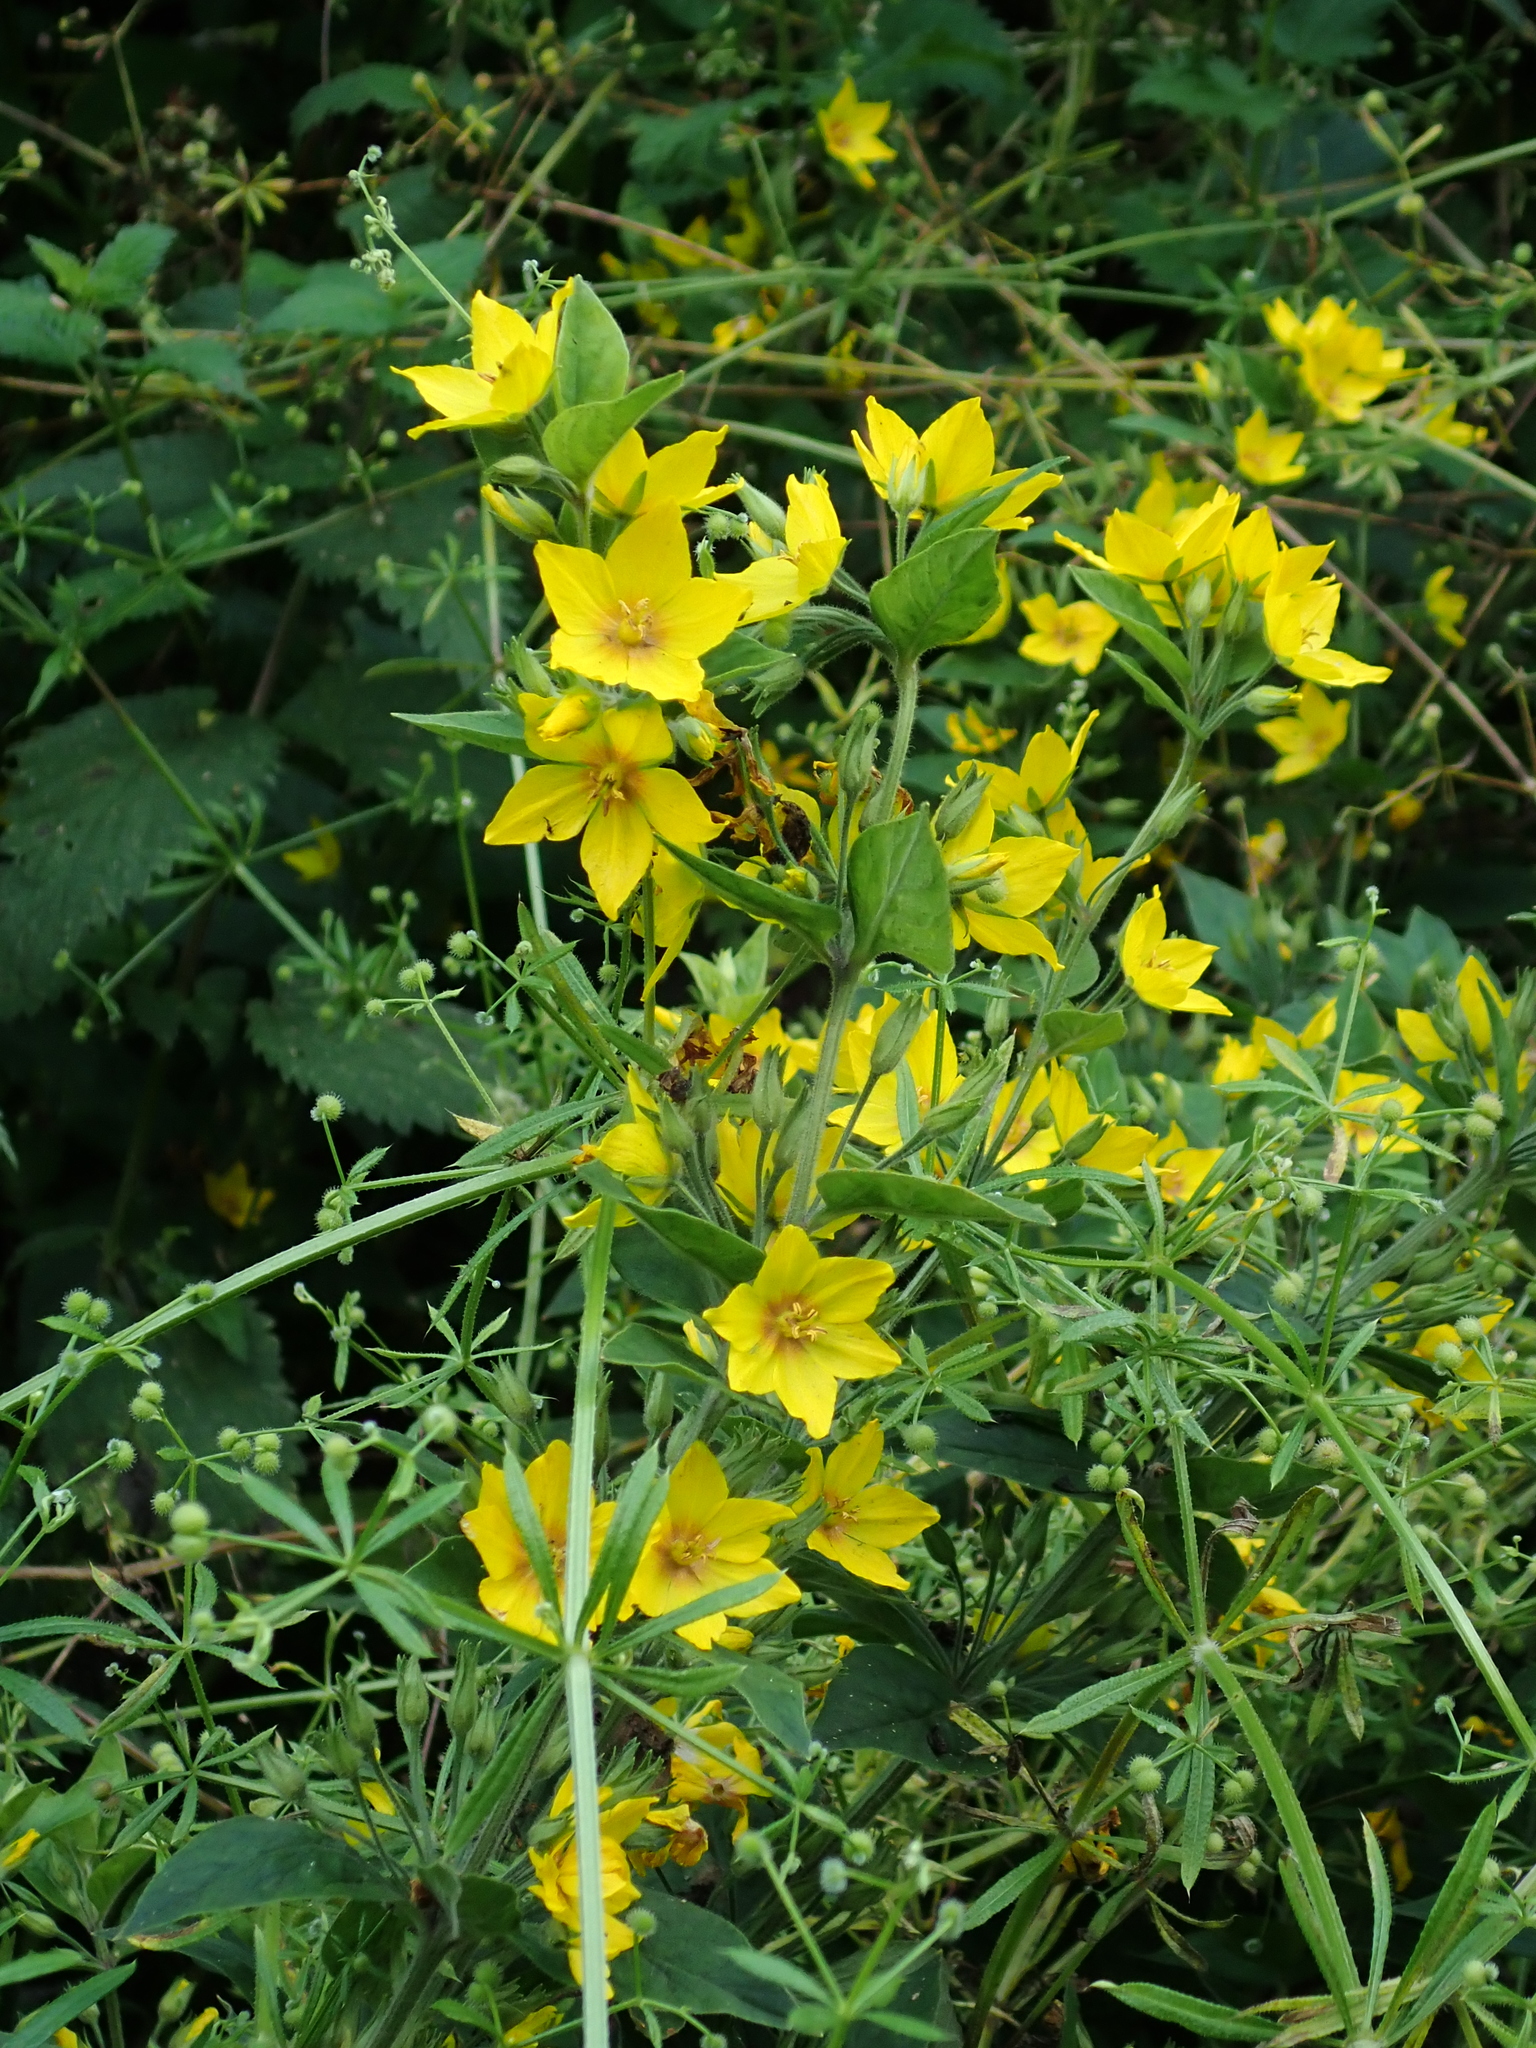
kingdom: Plantae
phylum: Tracheophyta
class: Magnoliopsida
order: Ericales
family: Primulaceae
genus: Lysimachia
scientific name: Lysimachia punctata
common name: Dotted loosestrife
